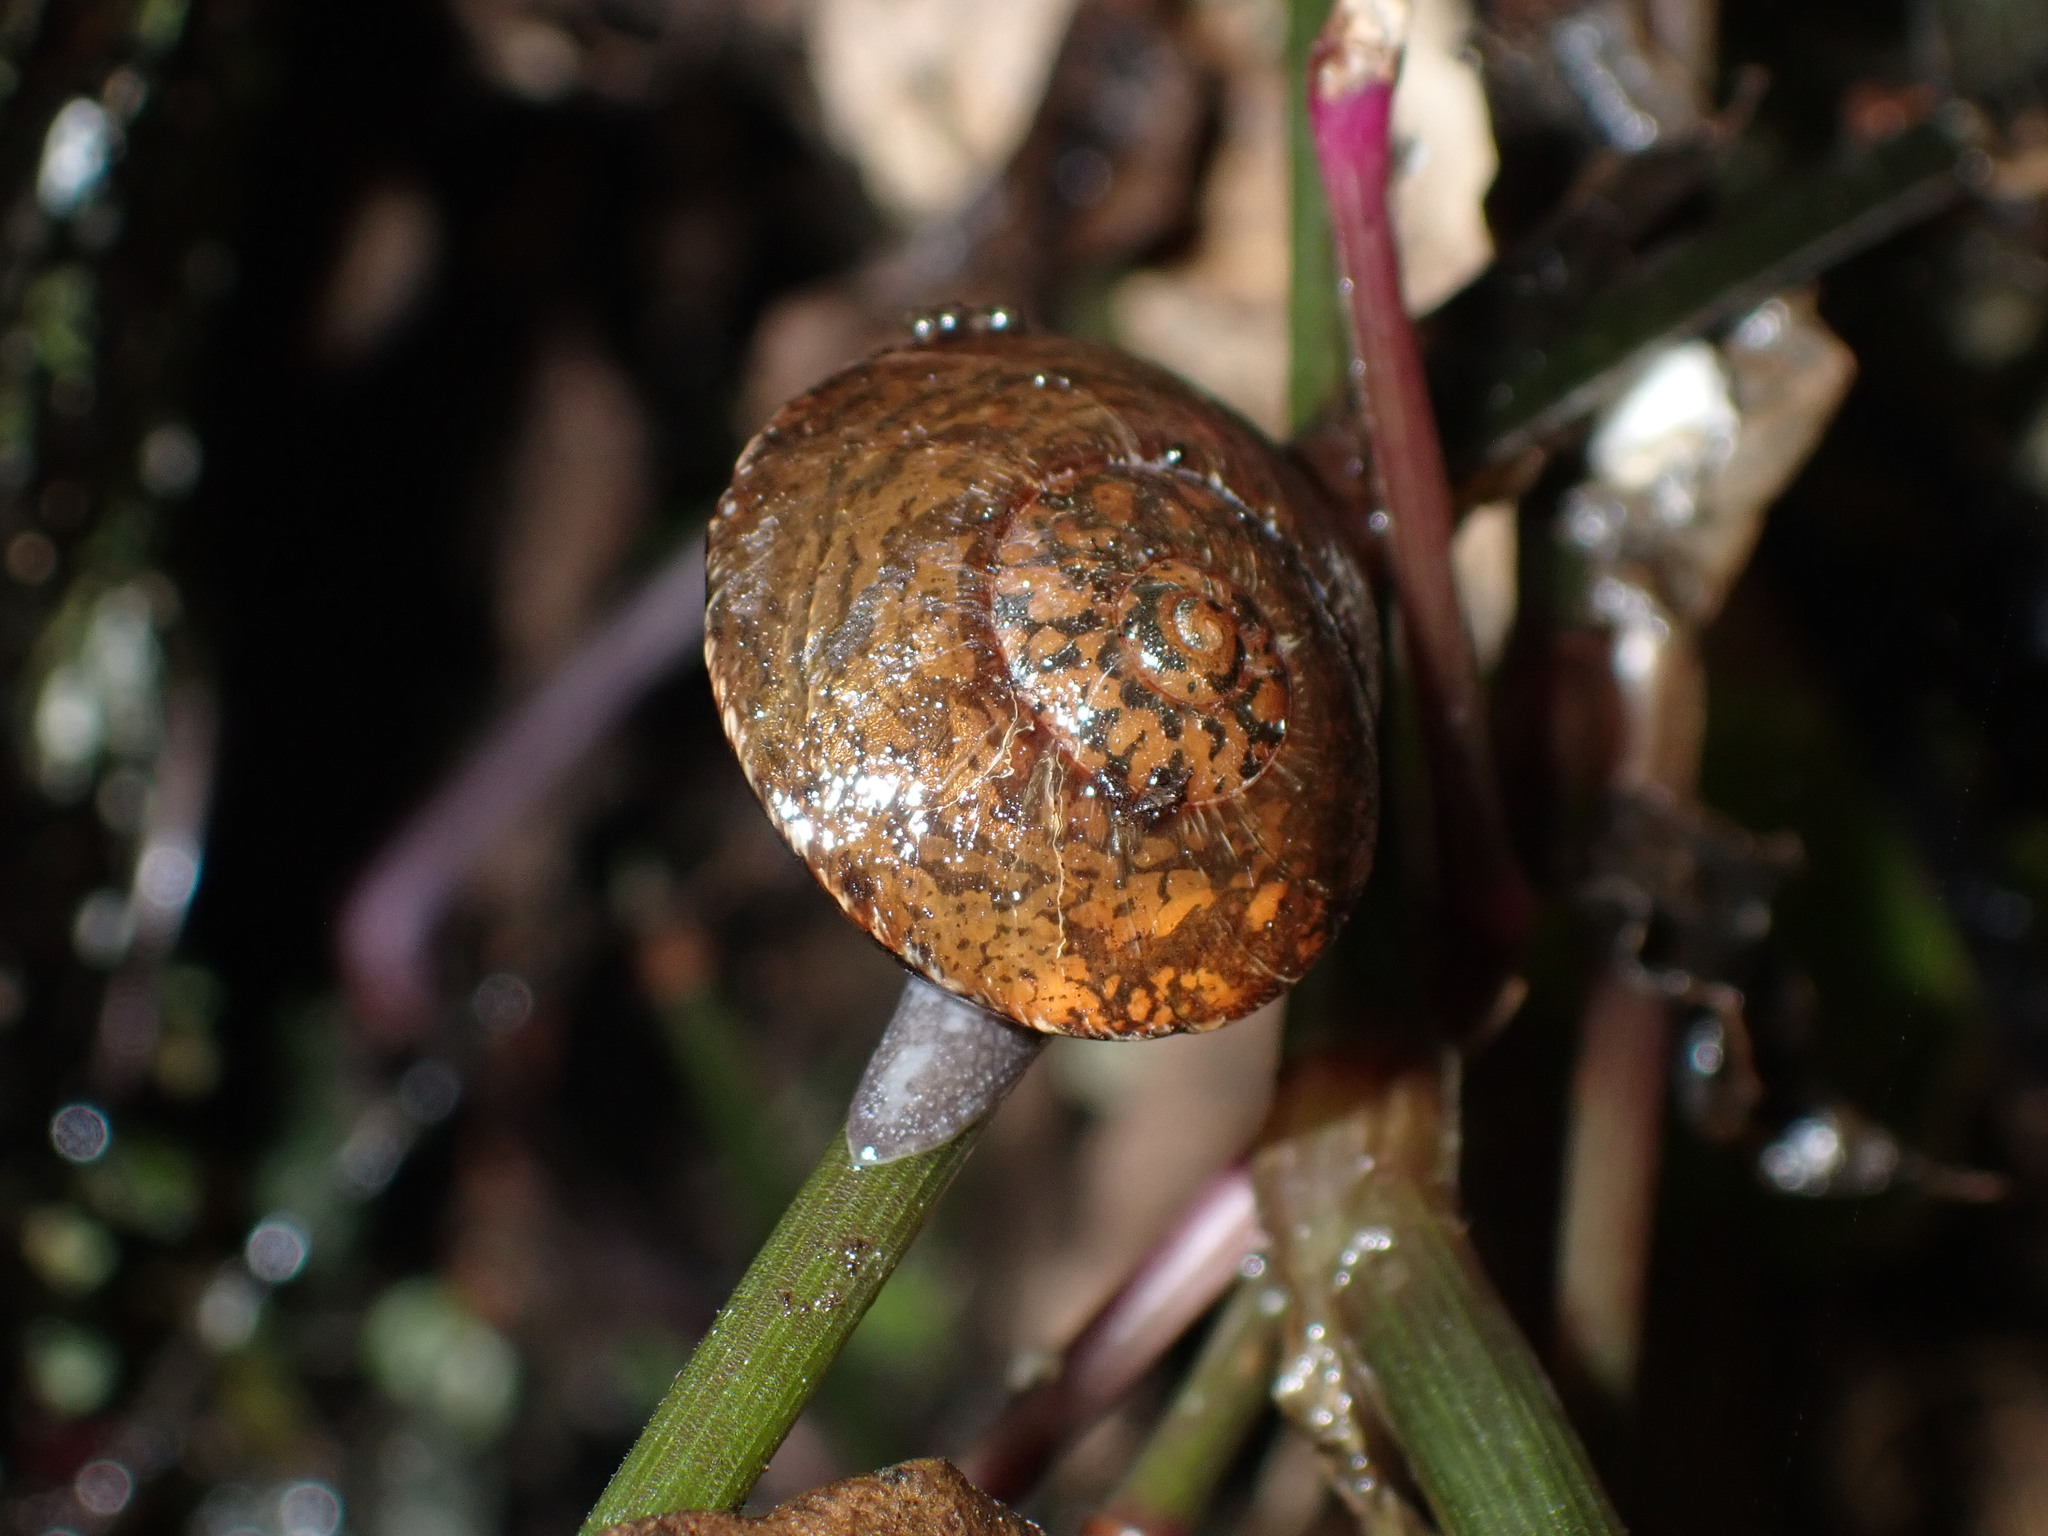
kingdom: Animalia
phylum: Mollusca
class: Gastropoda
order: Stylommatophora
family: Rhytididae
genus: Amborhytida
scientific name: Amborhytida dunniae
